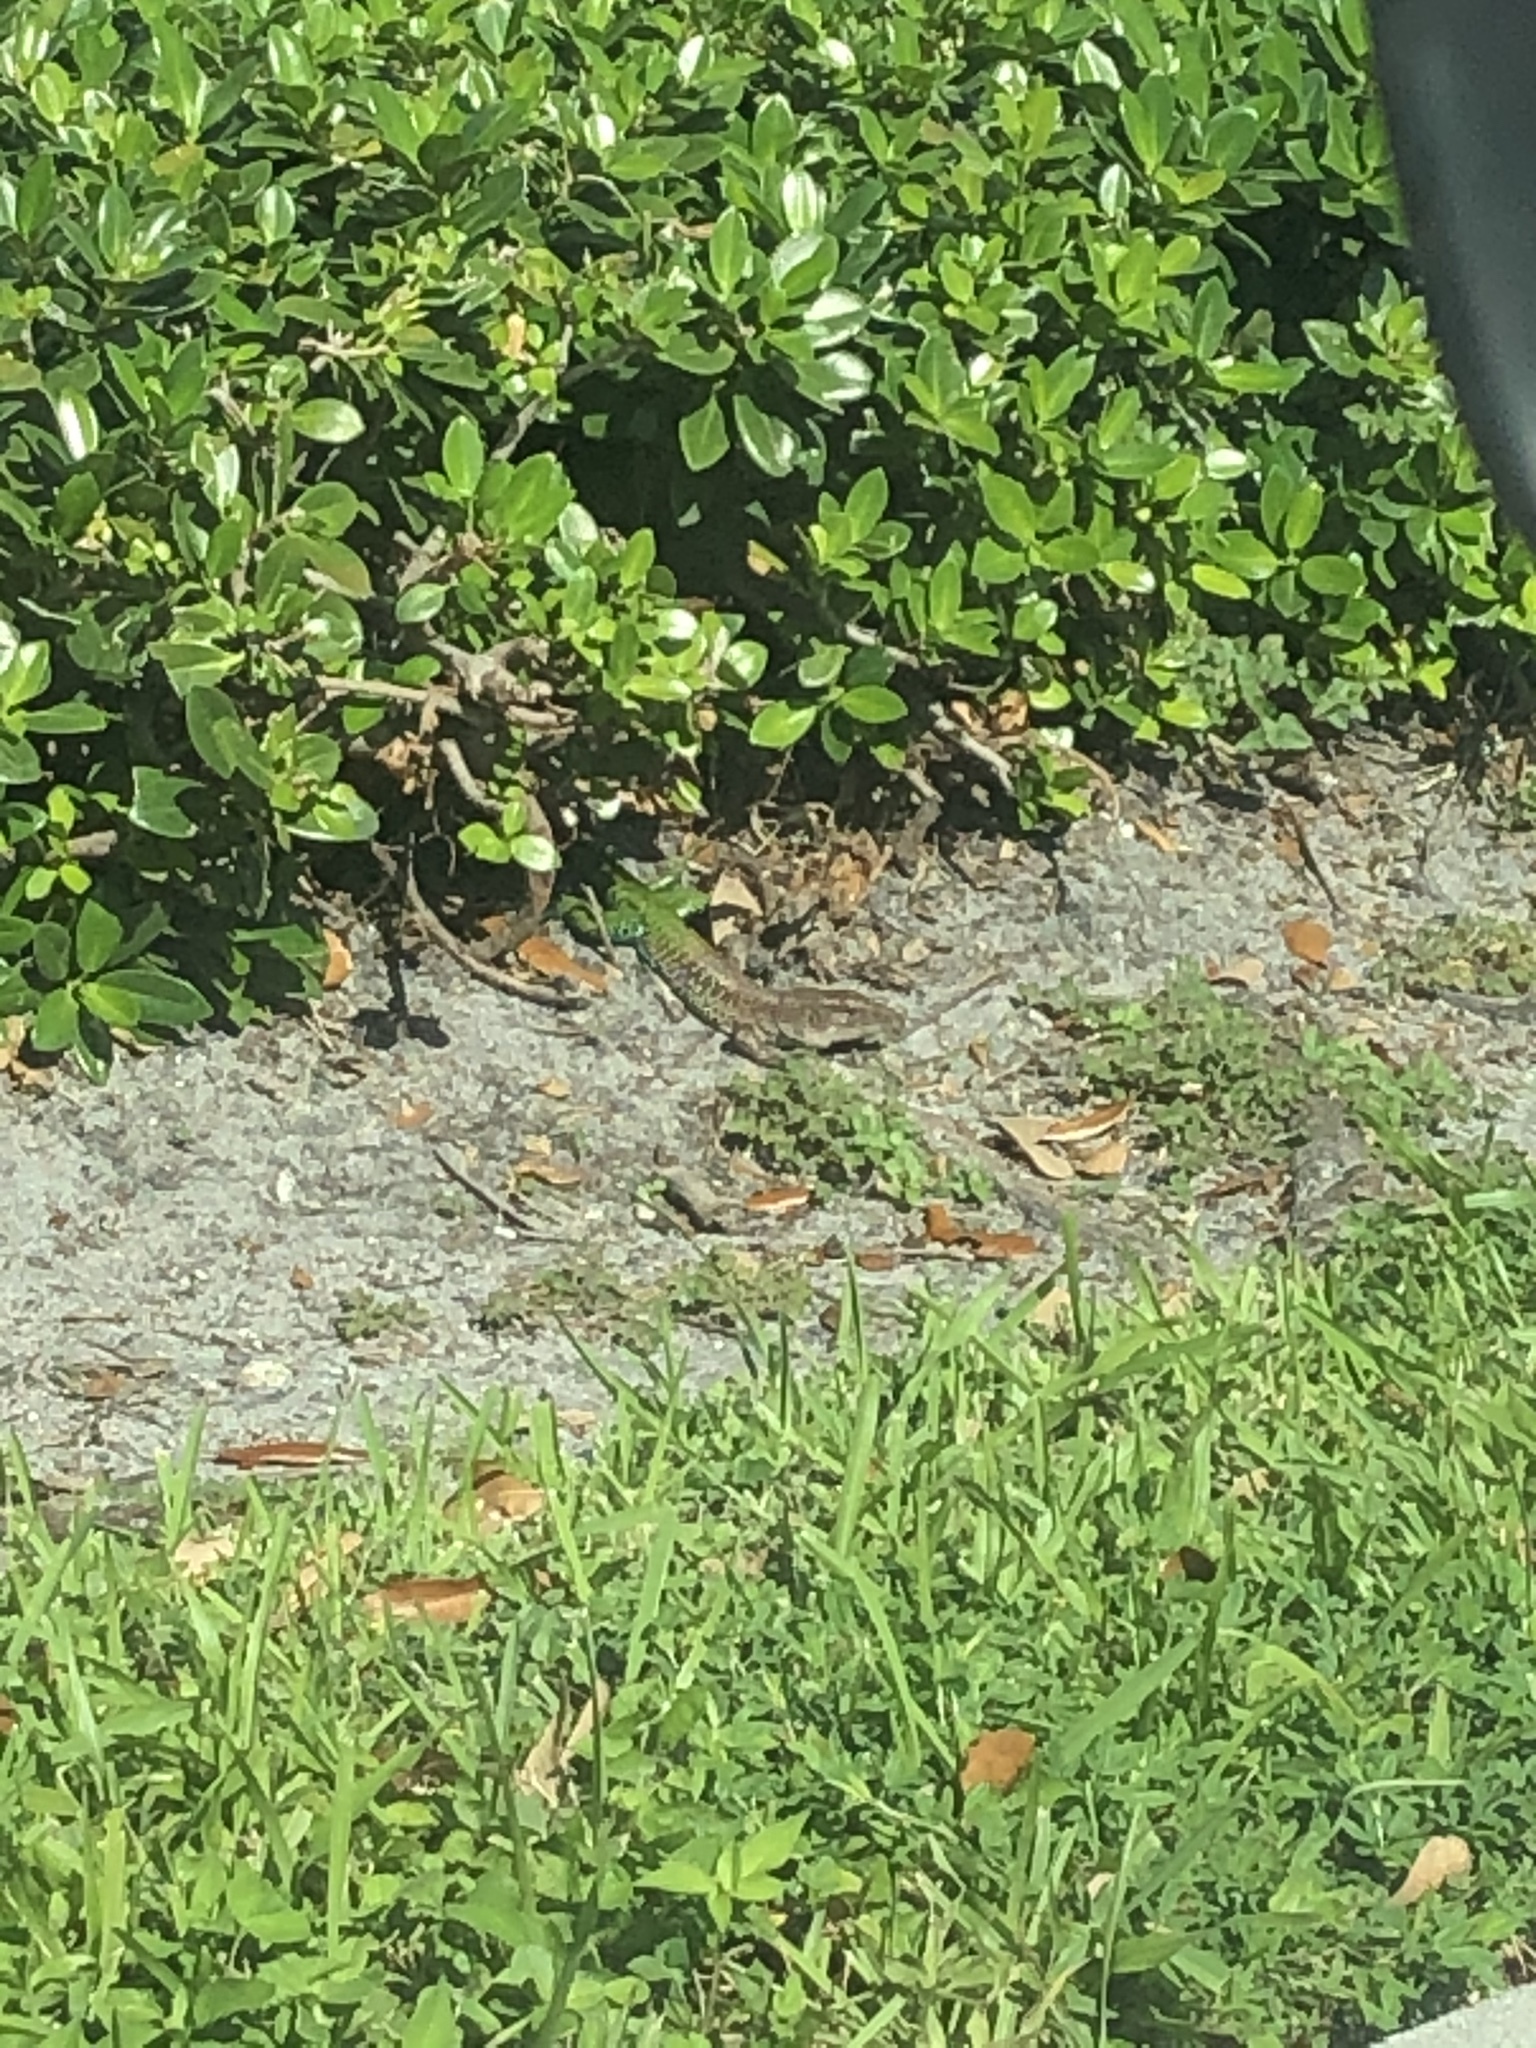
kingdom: Animalia
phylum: Chordata
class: Squamata
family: Teiidae
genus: Ameiva
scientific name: Ameiva ameiva
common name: Giant ameiva
